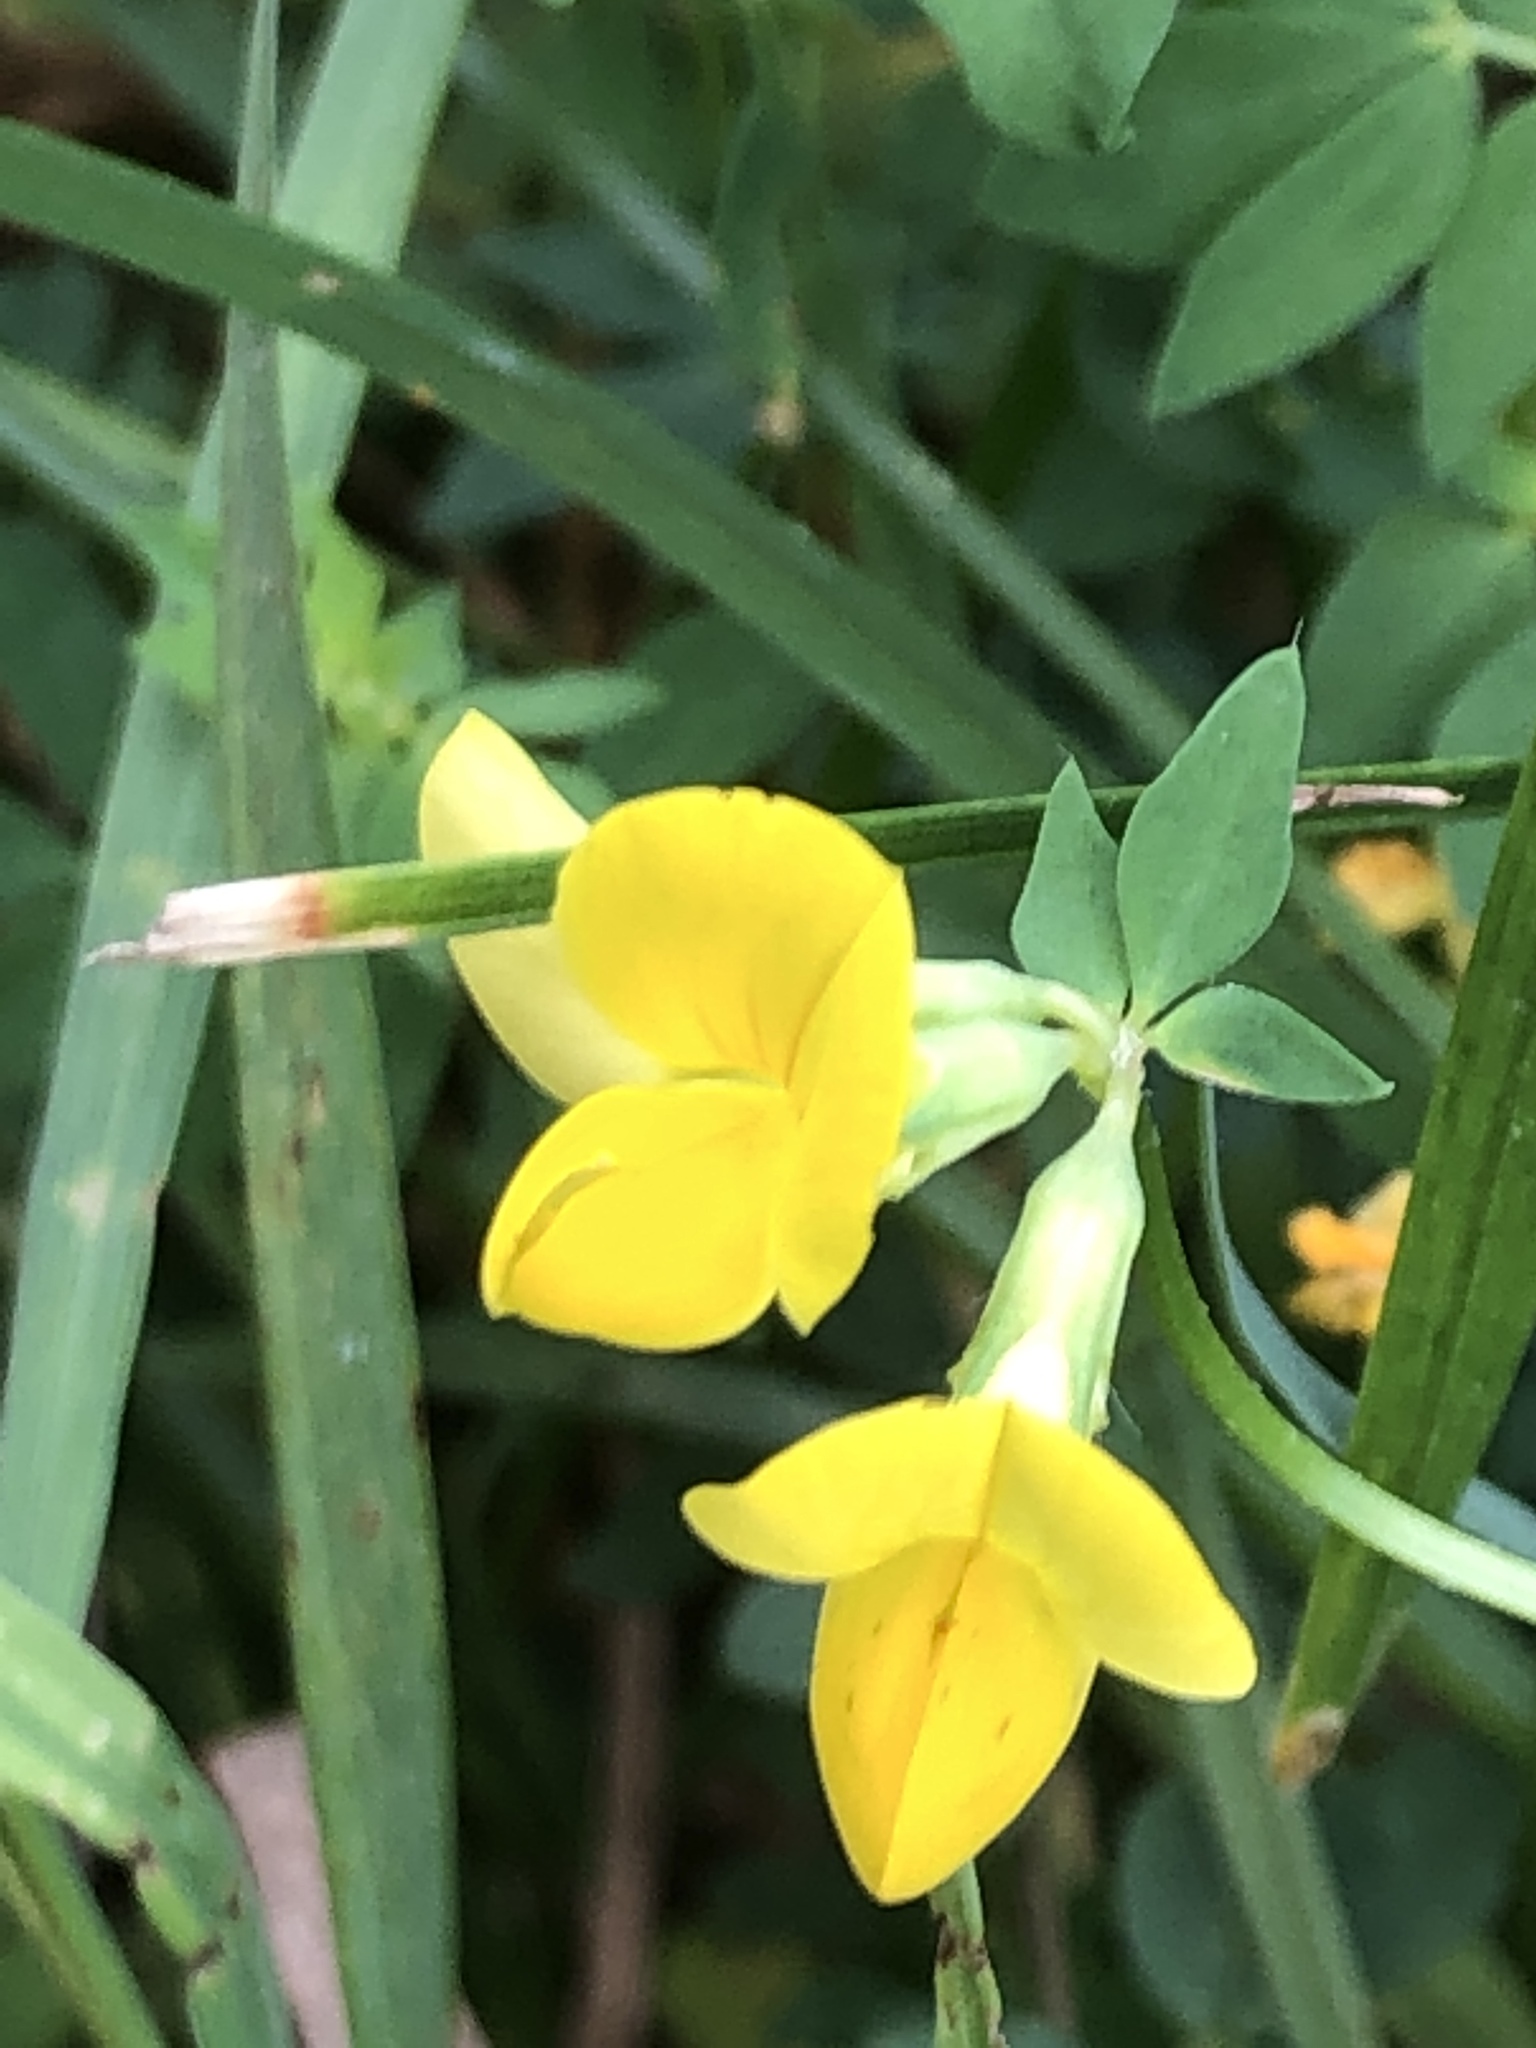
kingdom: Plantae
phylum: Tracheophyta
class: Magnoliopsida
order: Fabales
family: Fabaceae
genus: Lotus
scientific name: Lotus corniculatus
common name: Common bird's-foot-trefoil
